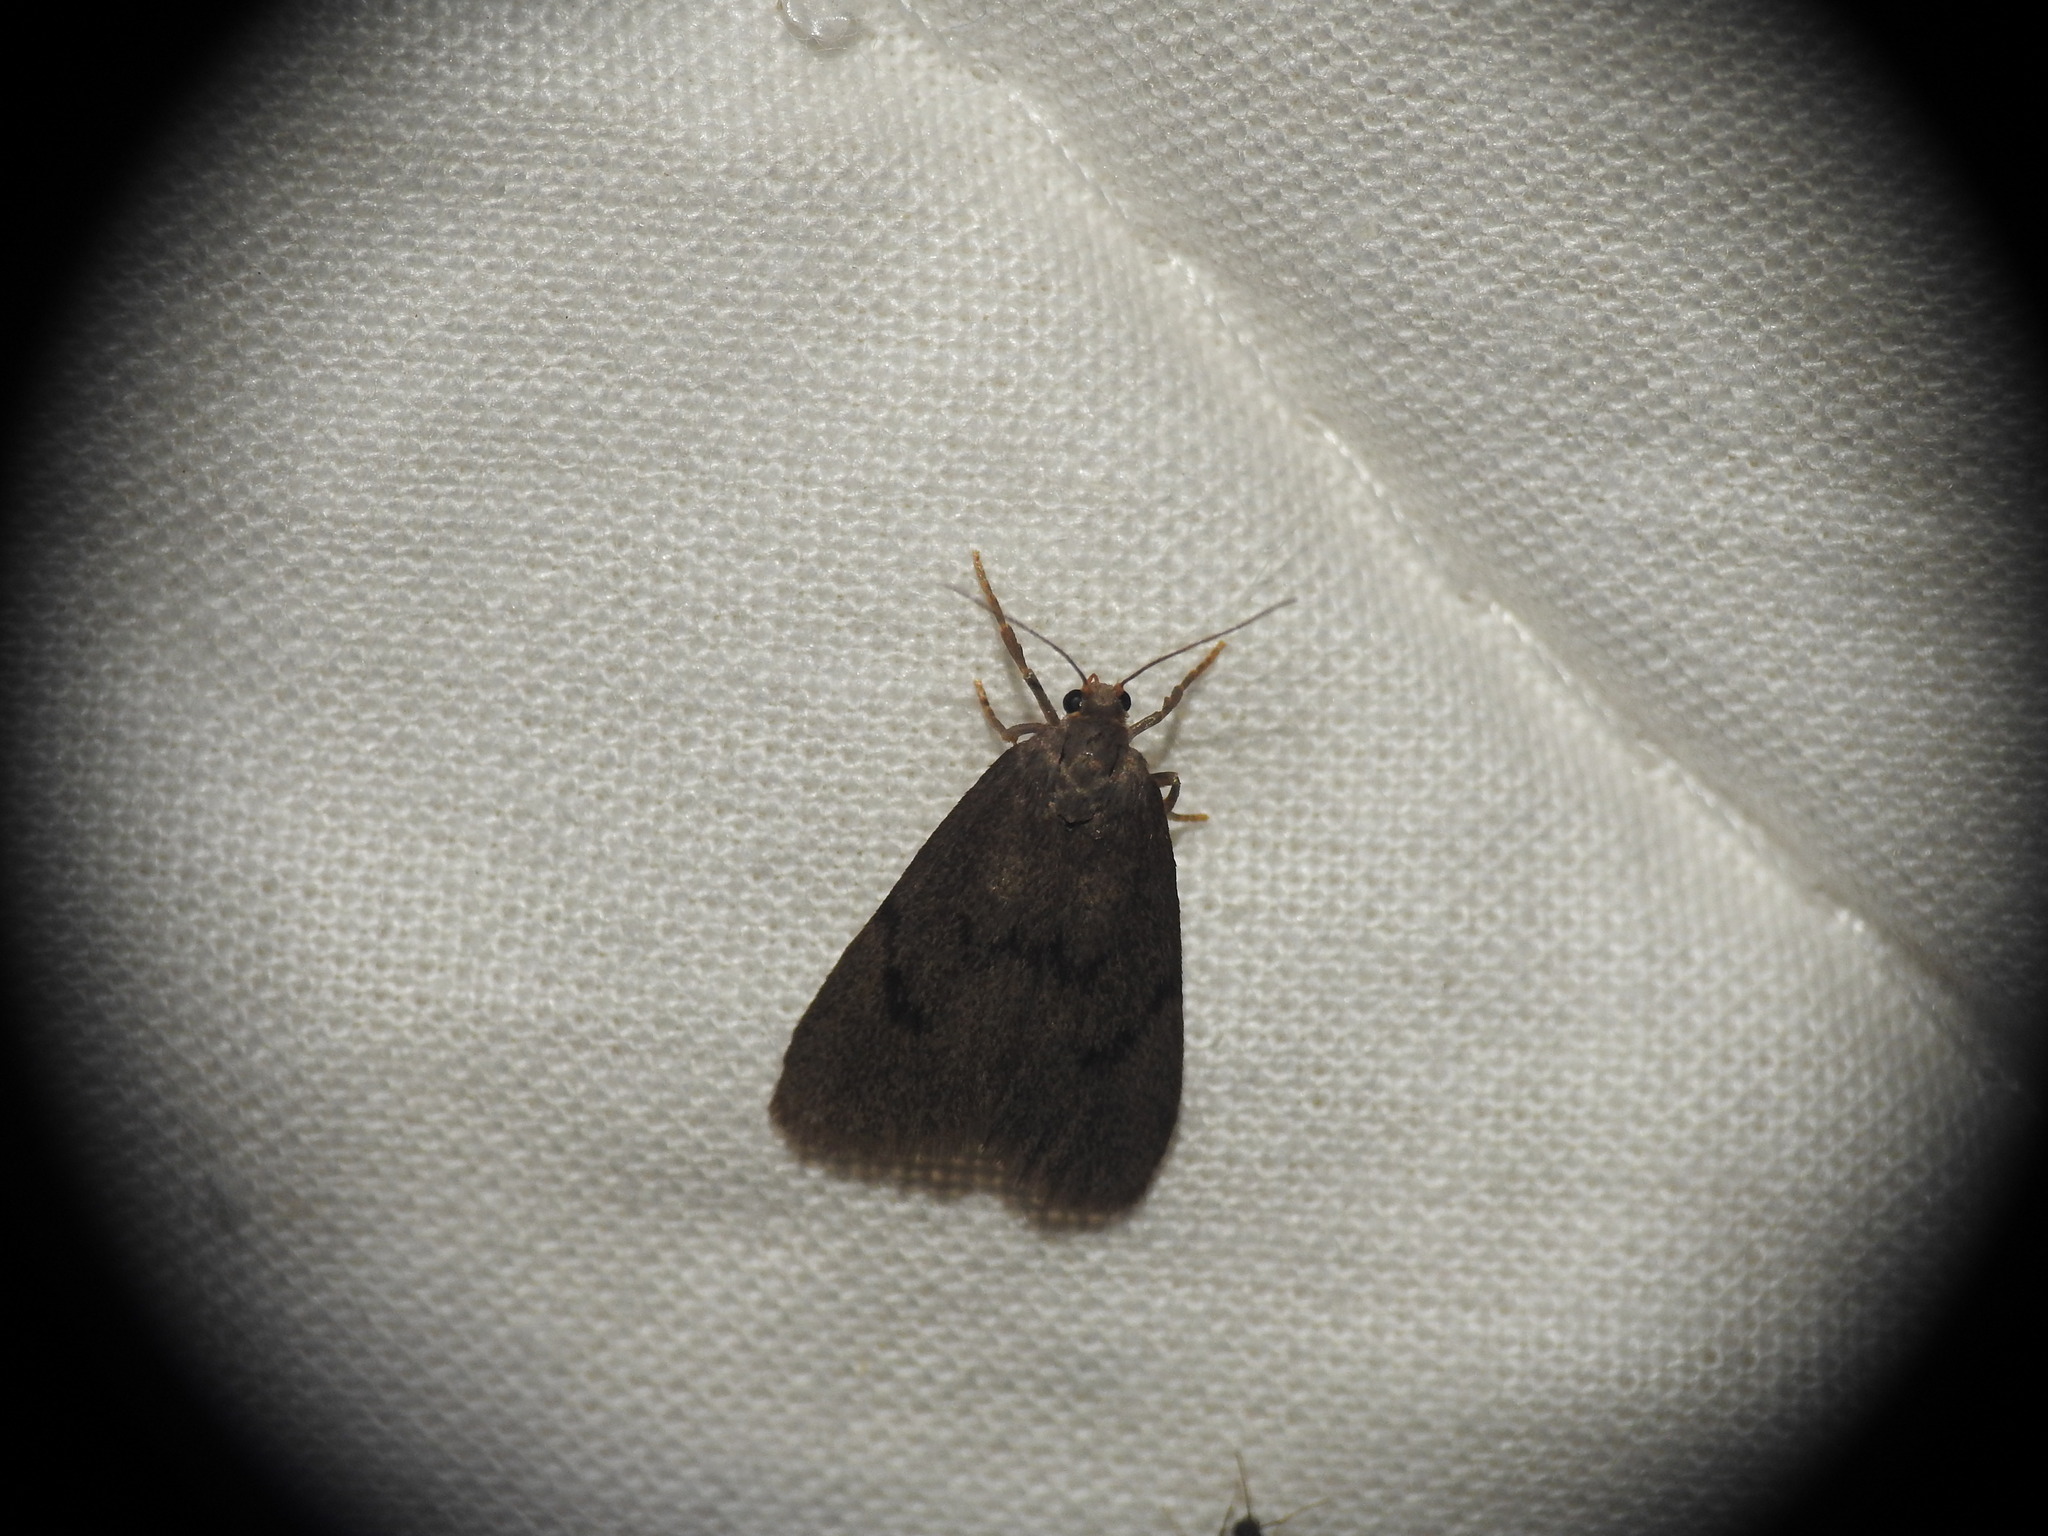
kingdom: Animalia
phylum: Arthropoda
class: Insecta
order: Lepidoptera
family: Erebidae
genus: Apaidia
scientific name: Apaidia mesogona
